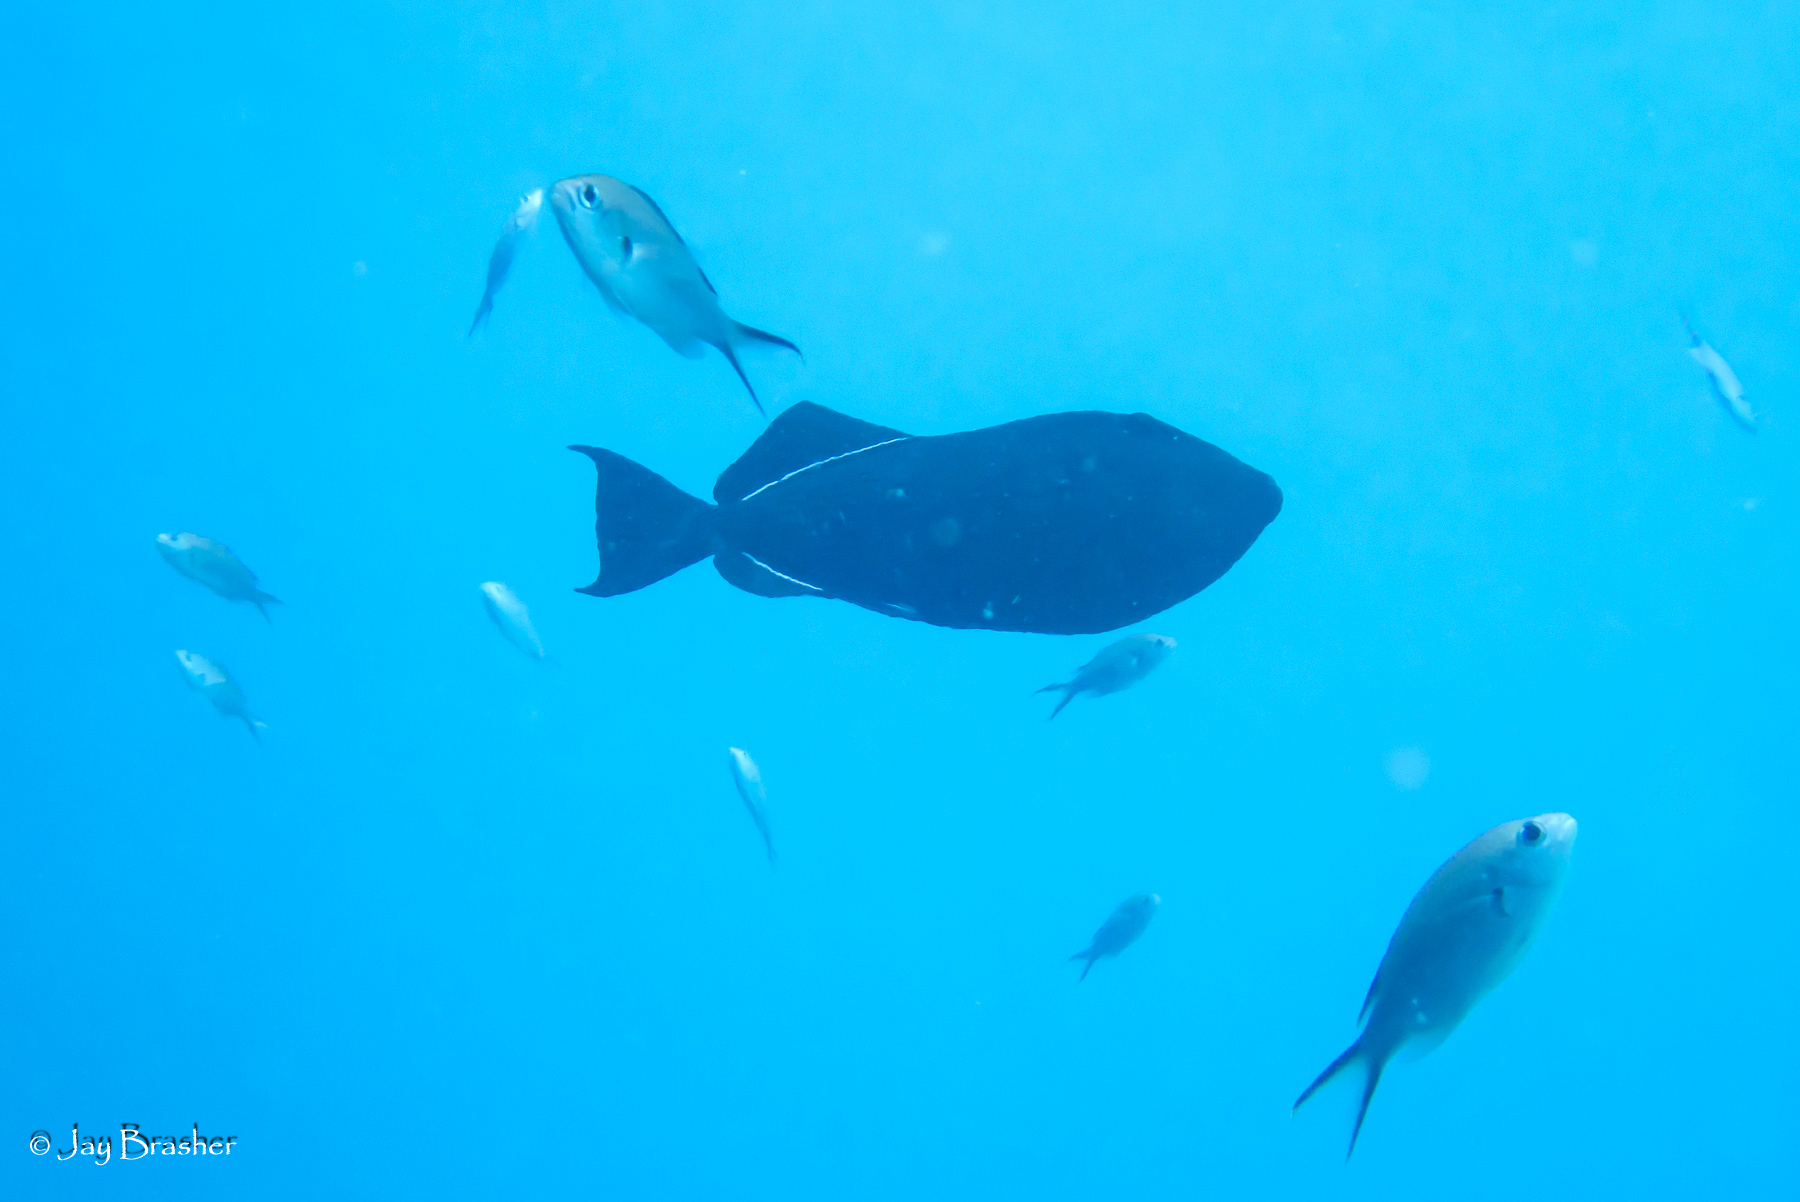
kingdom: Animalia
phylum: Chordata
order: Perciformes
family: Pomacentridae
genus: Chromis
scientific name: Chromis multilineata
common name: Brown chromis
